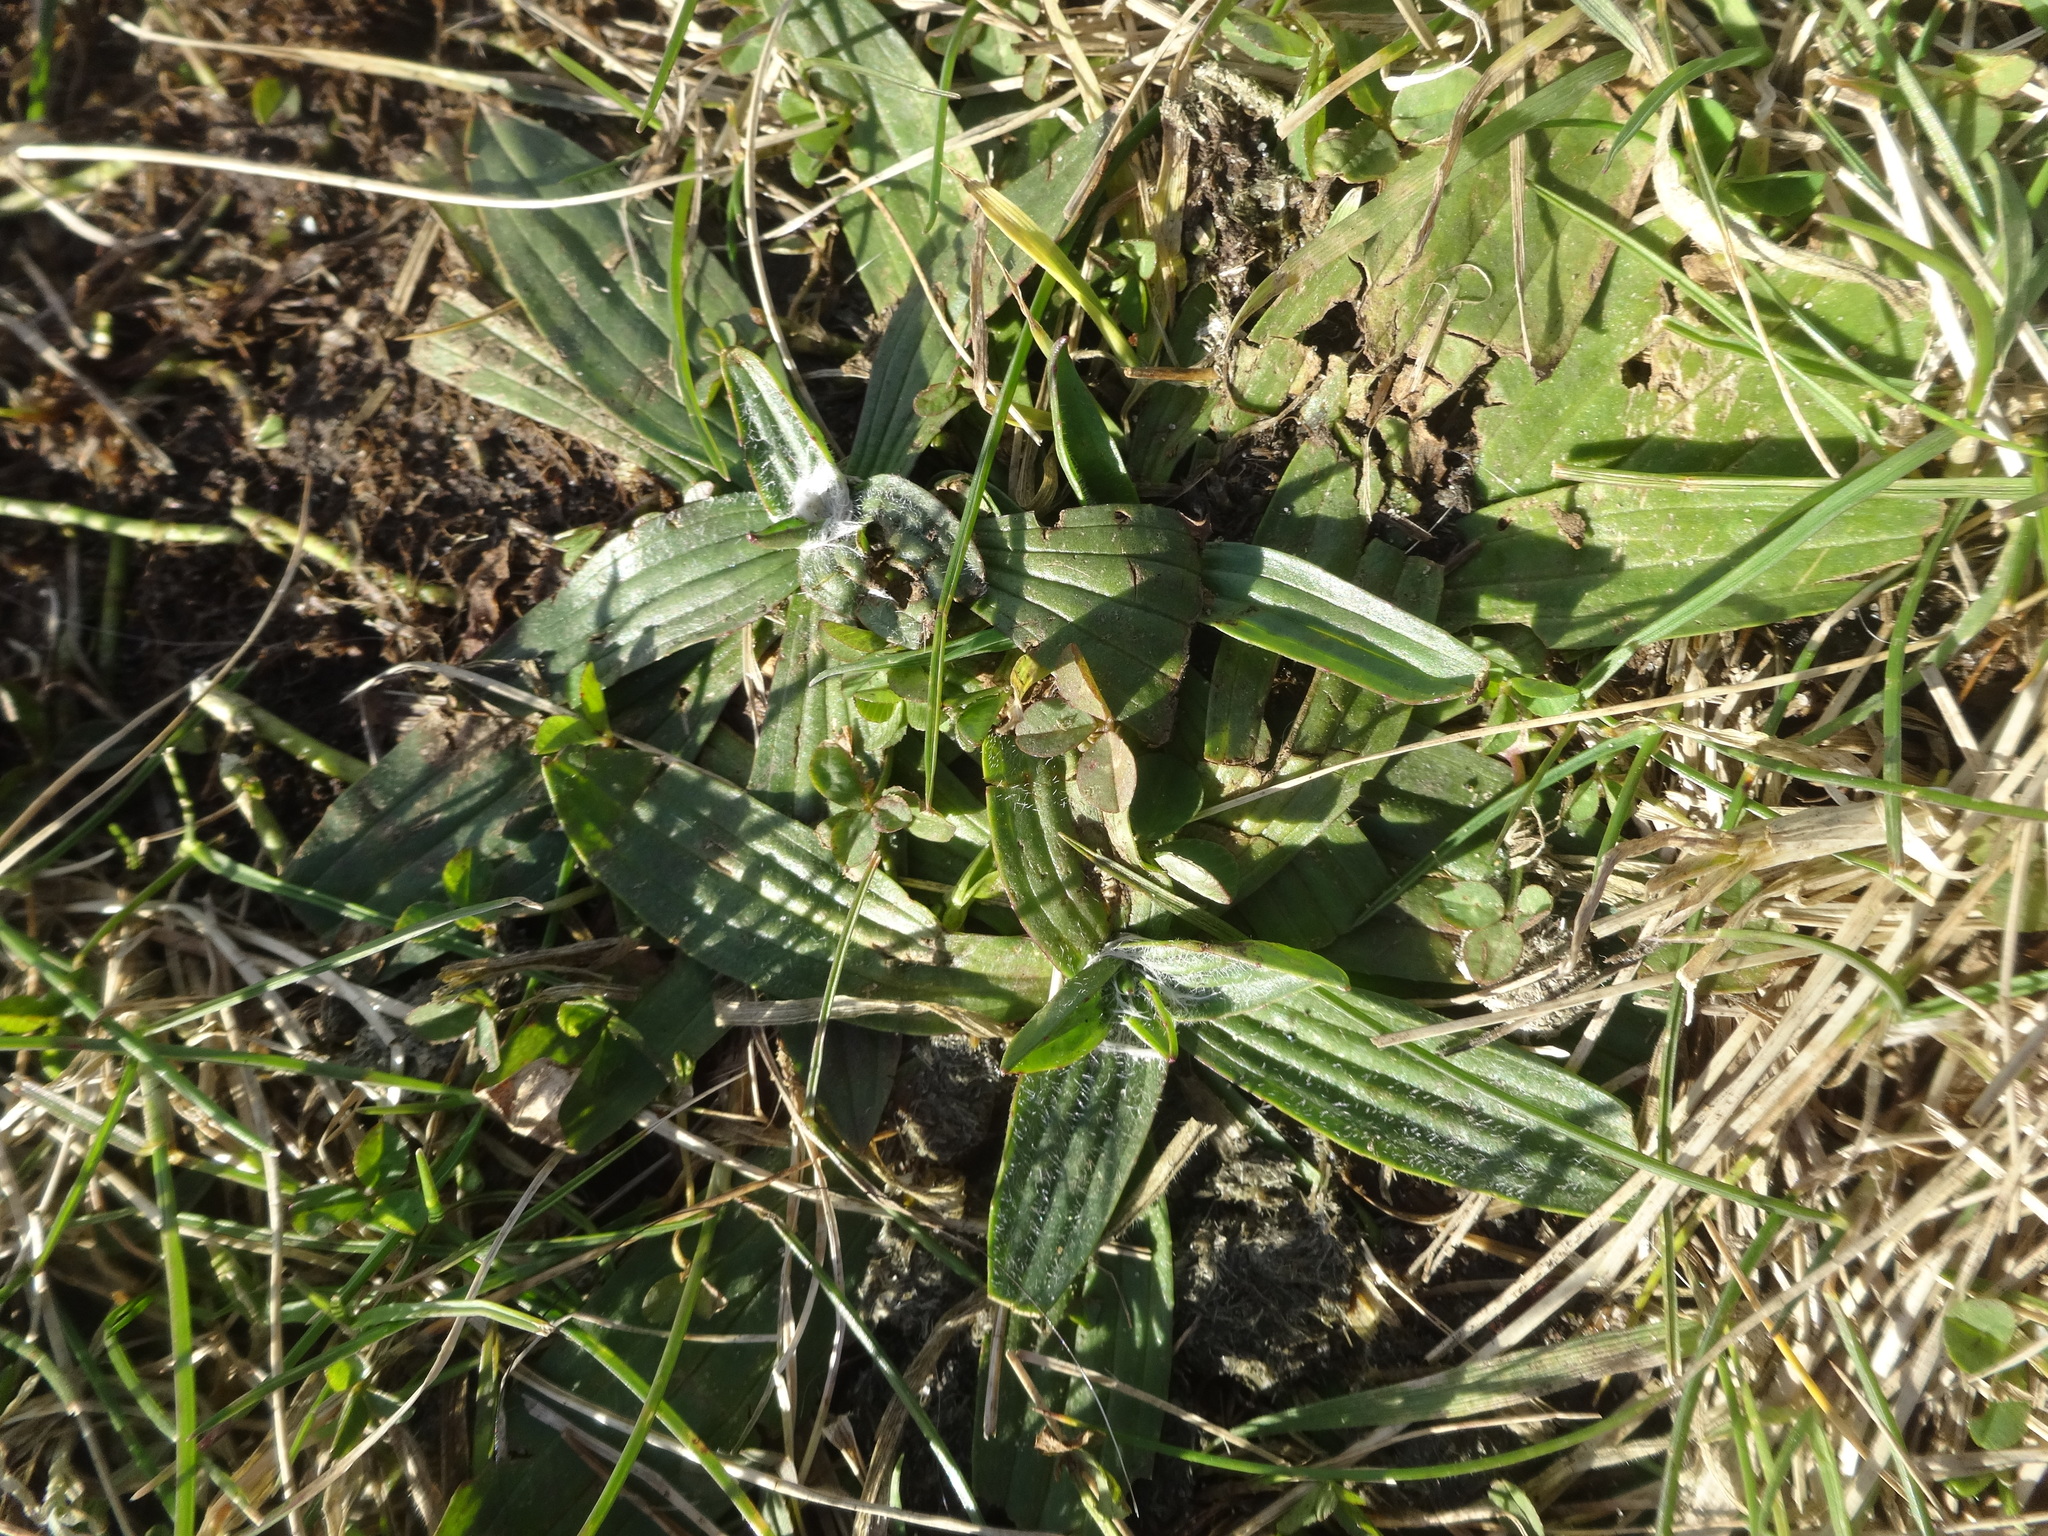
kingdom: Plantae
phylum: Tracheophyta
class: Magnoliopsida
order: Lamiales
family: Plantaginaceae
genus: Plantago
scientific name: Plantago lanceolata
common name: Ribwort plantain
